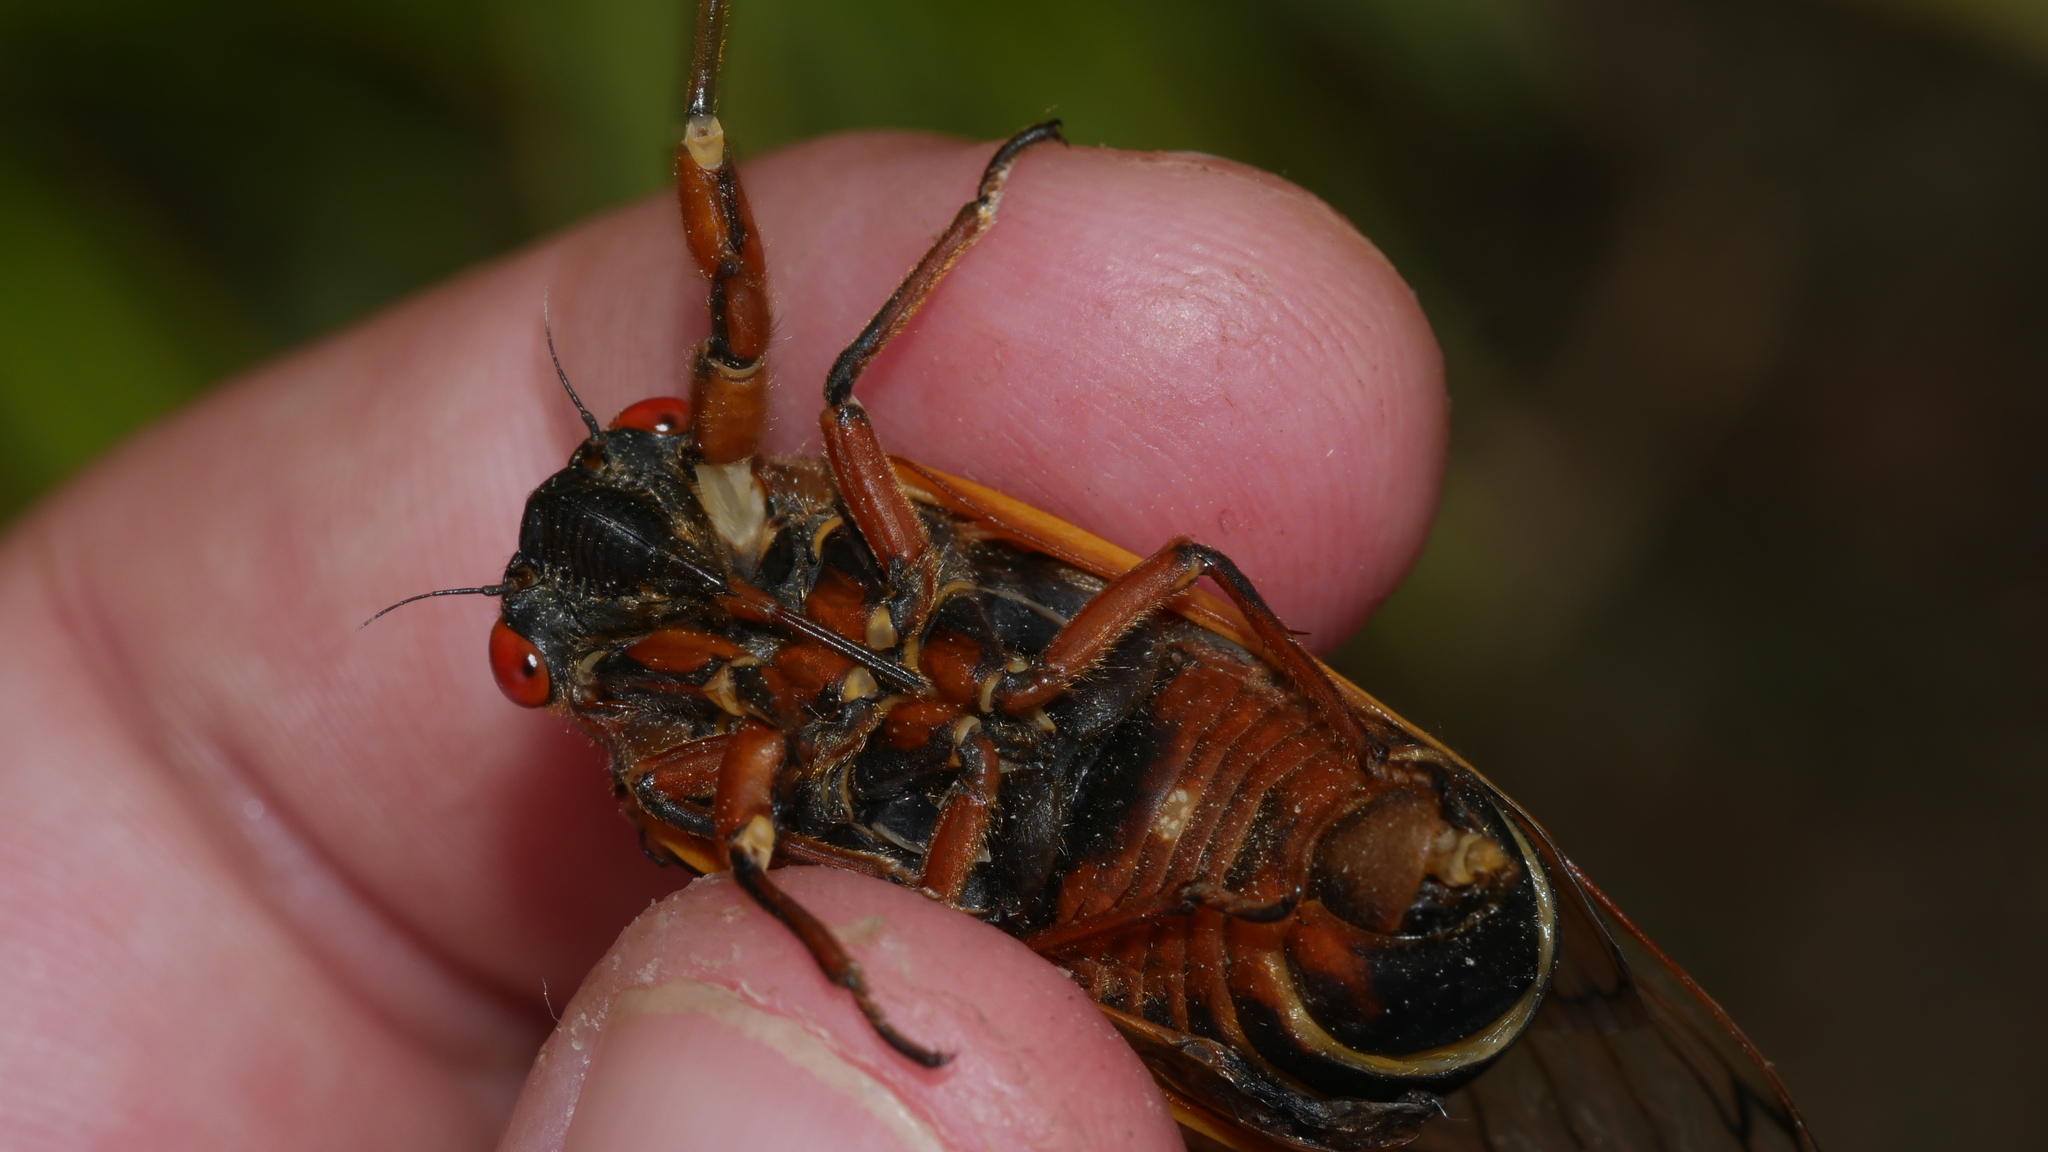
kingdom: Animalia
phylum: Arthropoda
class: Insecta
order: Hemiptera
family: Cicadidae
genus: Magicicada
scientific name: Magicicada septendecim
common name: Periodical cicada
